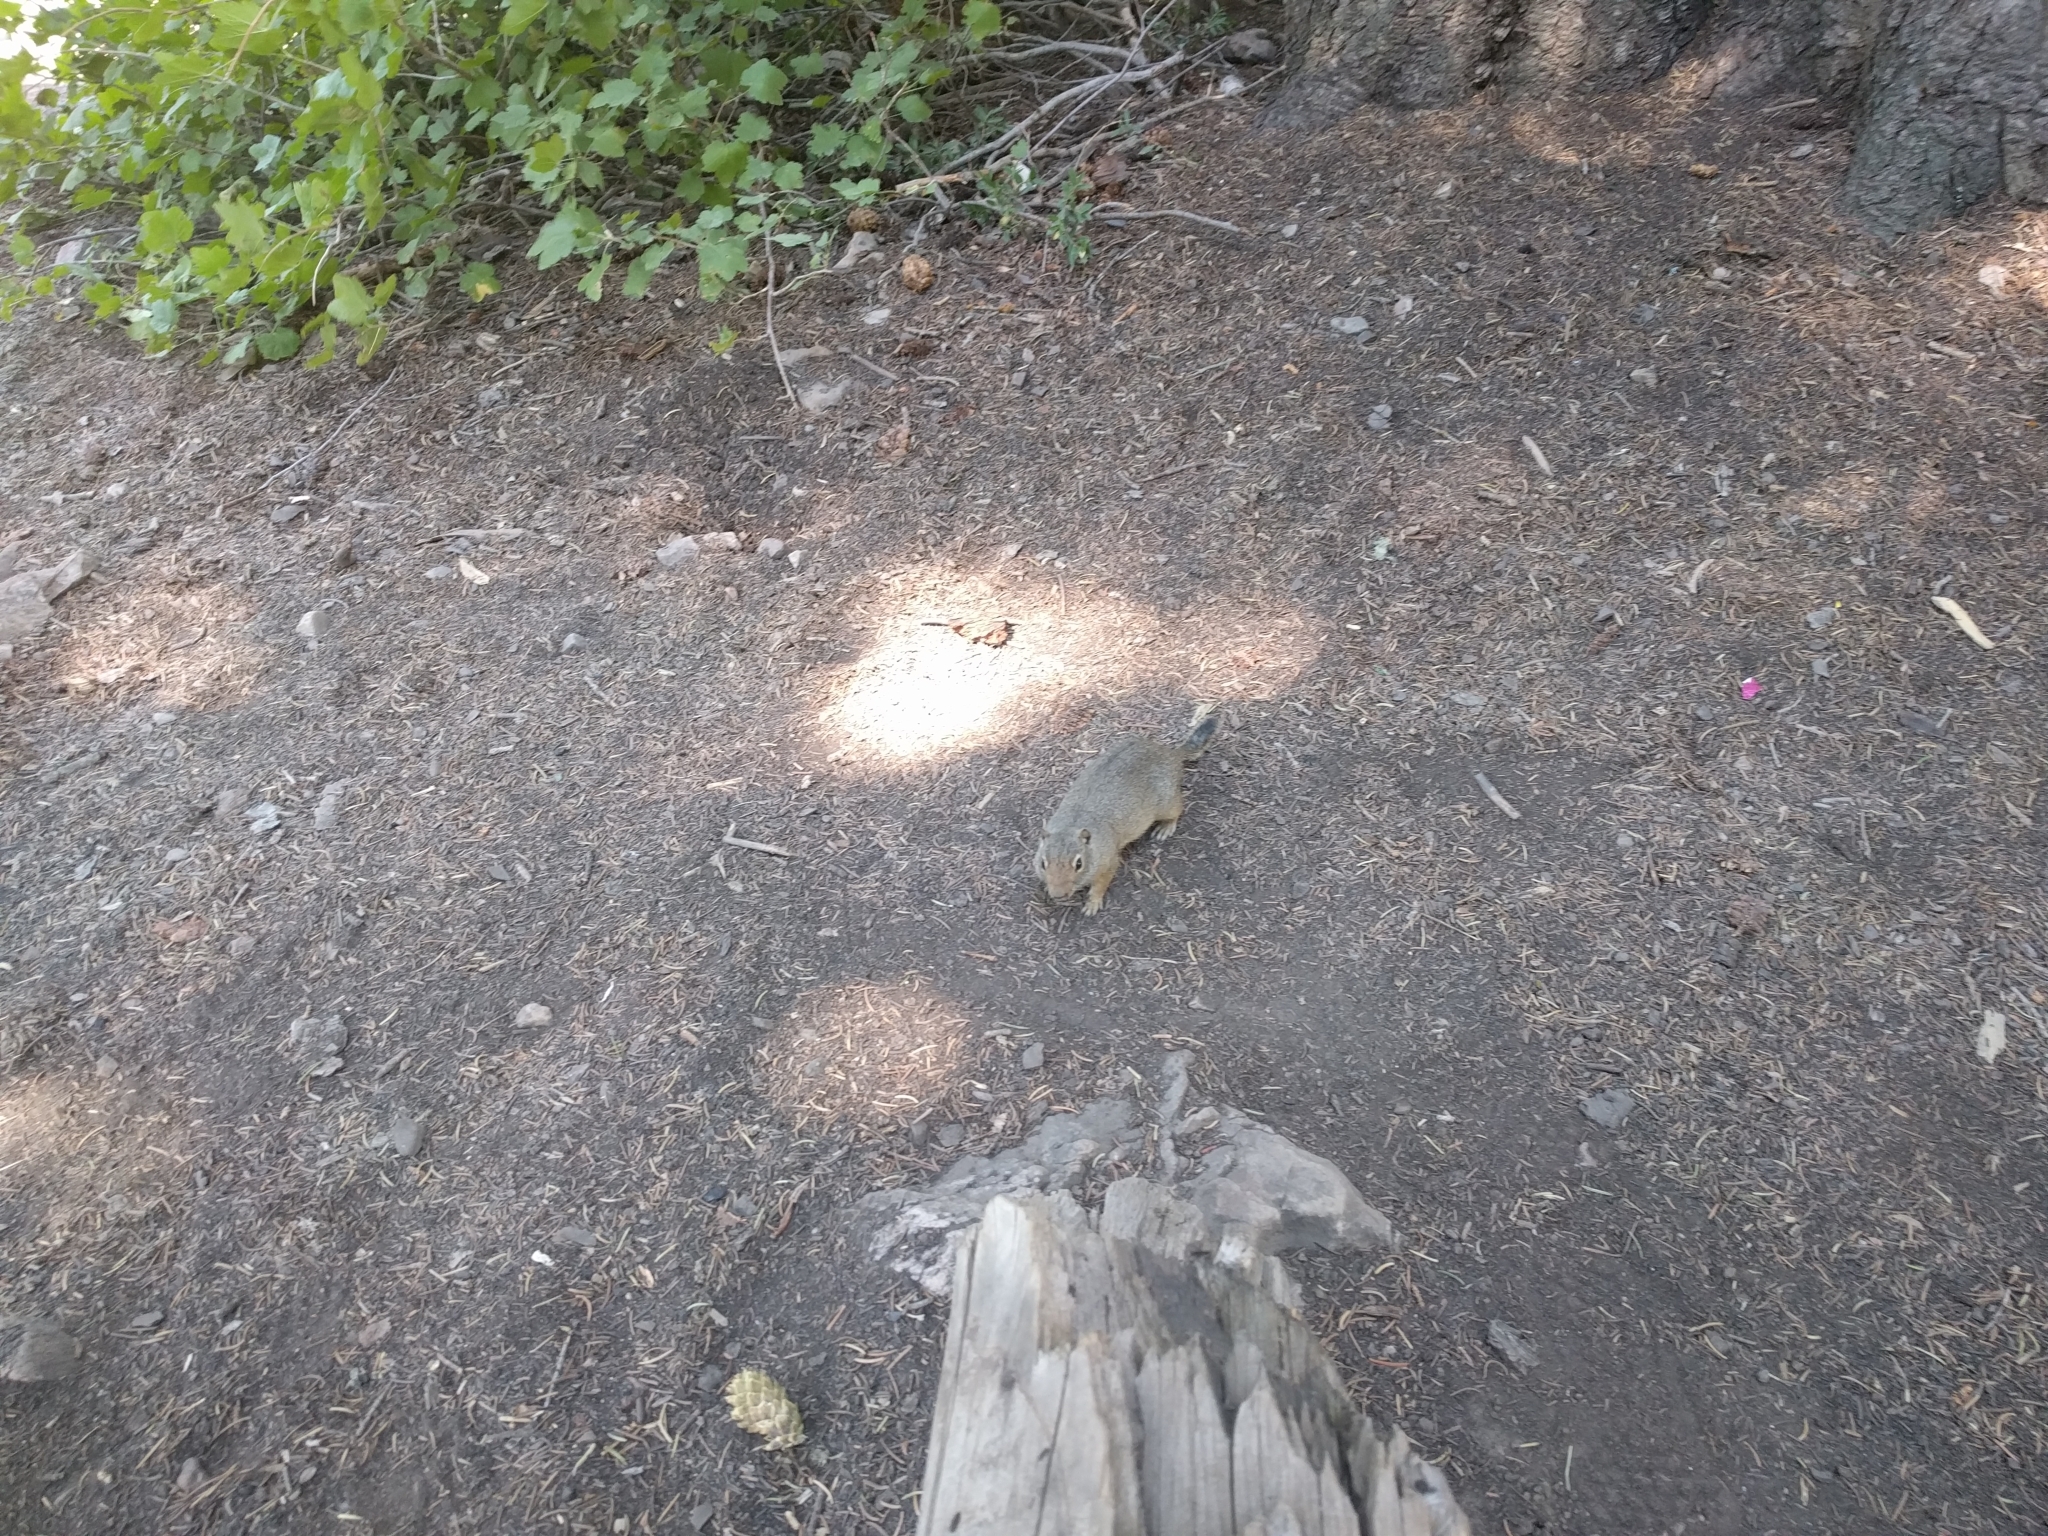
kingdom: Animalia
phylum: Chordata
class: Mammalia
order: Rodentia
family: Sciuridae
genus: Urocitellus
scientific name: Urocitellus armatus
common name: Uinta ground squirrel
